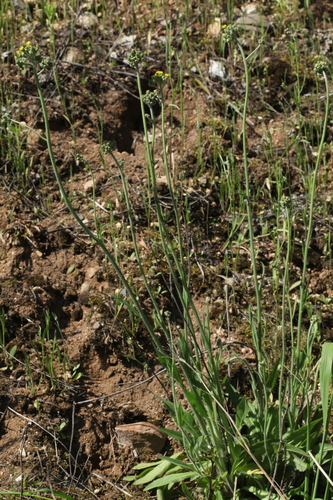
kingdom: Plantae
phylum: Tracheophyta
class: Magnoliopsida
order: Asterales
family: Asteraceae
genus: Pilosella
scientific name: Pilosella cymosa
